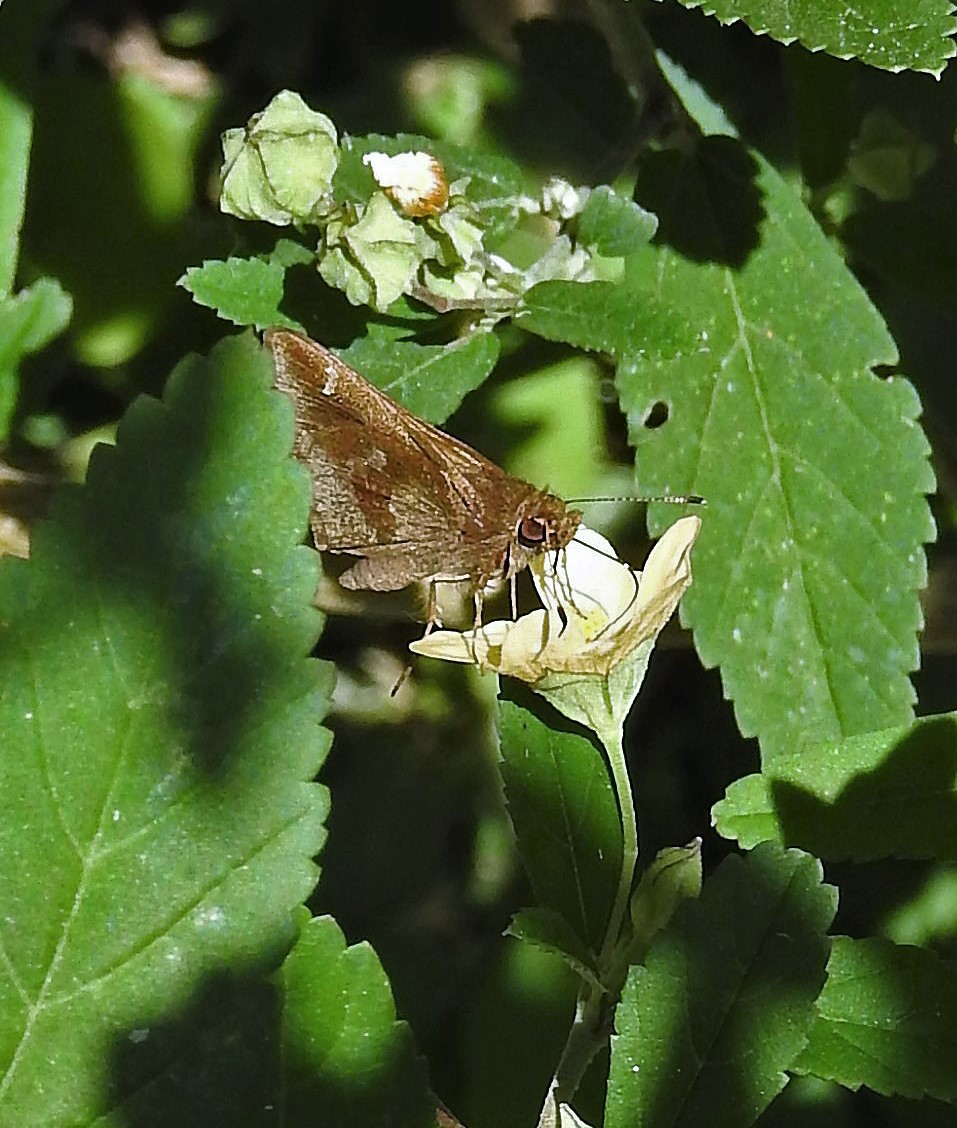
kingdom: Animalia
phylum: Arthropoda
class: Insecta
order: Lepidoptera
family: Hesperiidae
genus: Cymaenes
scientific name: Cymaenes
